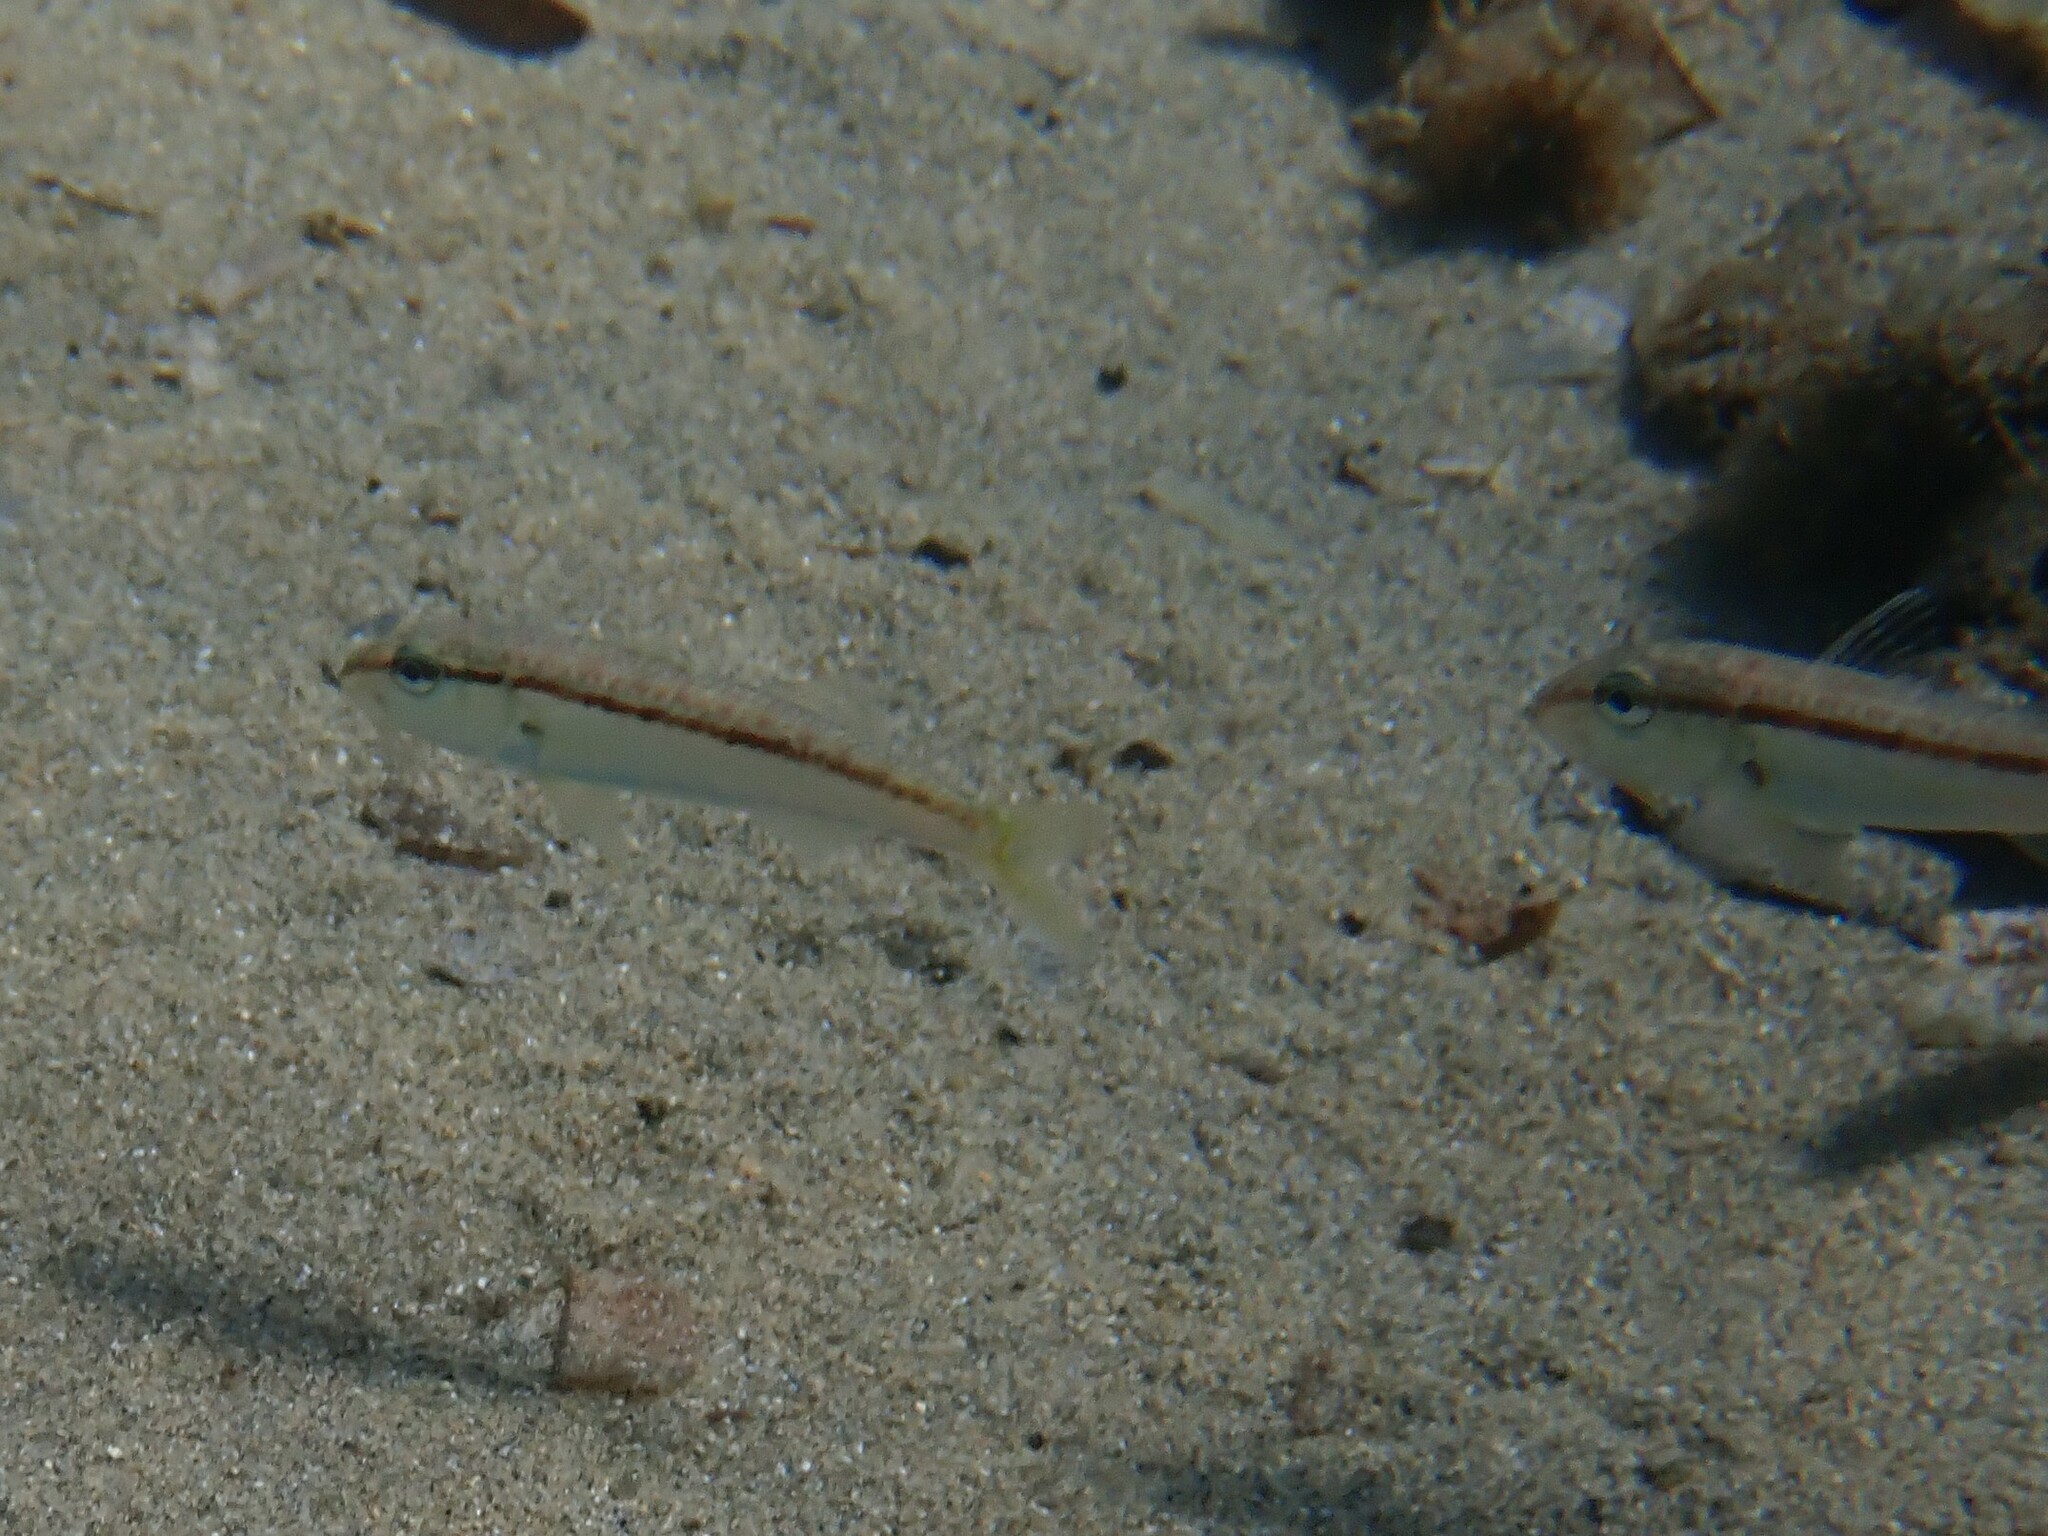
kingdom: Animalia
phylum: Chordata
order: Perciformes
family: Mullidae
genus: Mullus
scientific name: Mullus barbatus
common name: Blunt-snouted mullet
